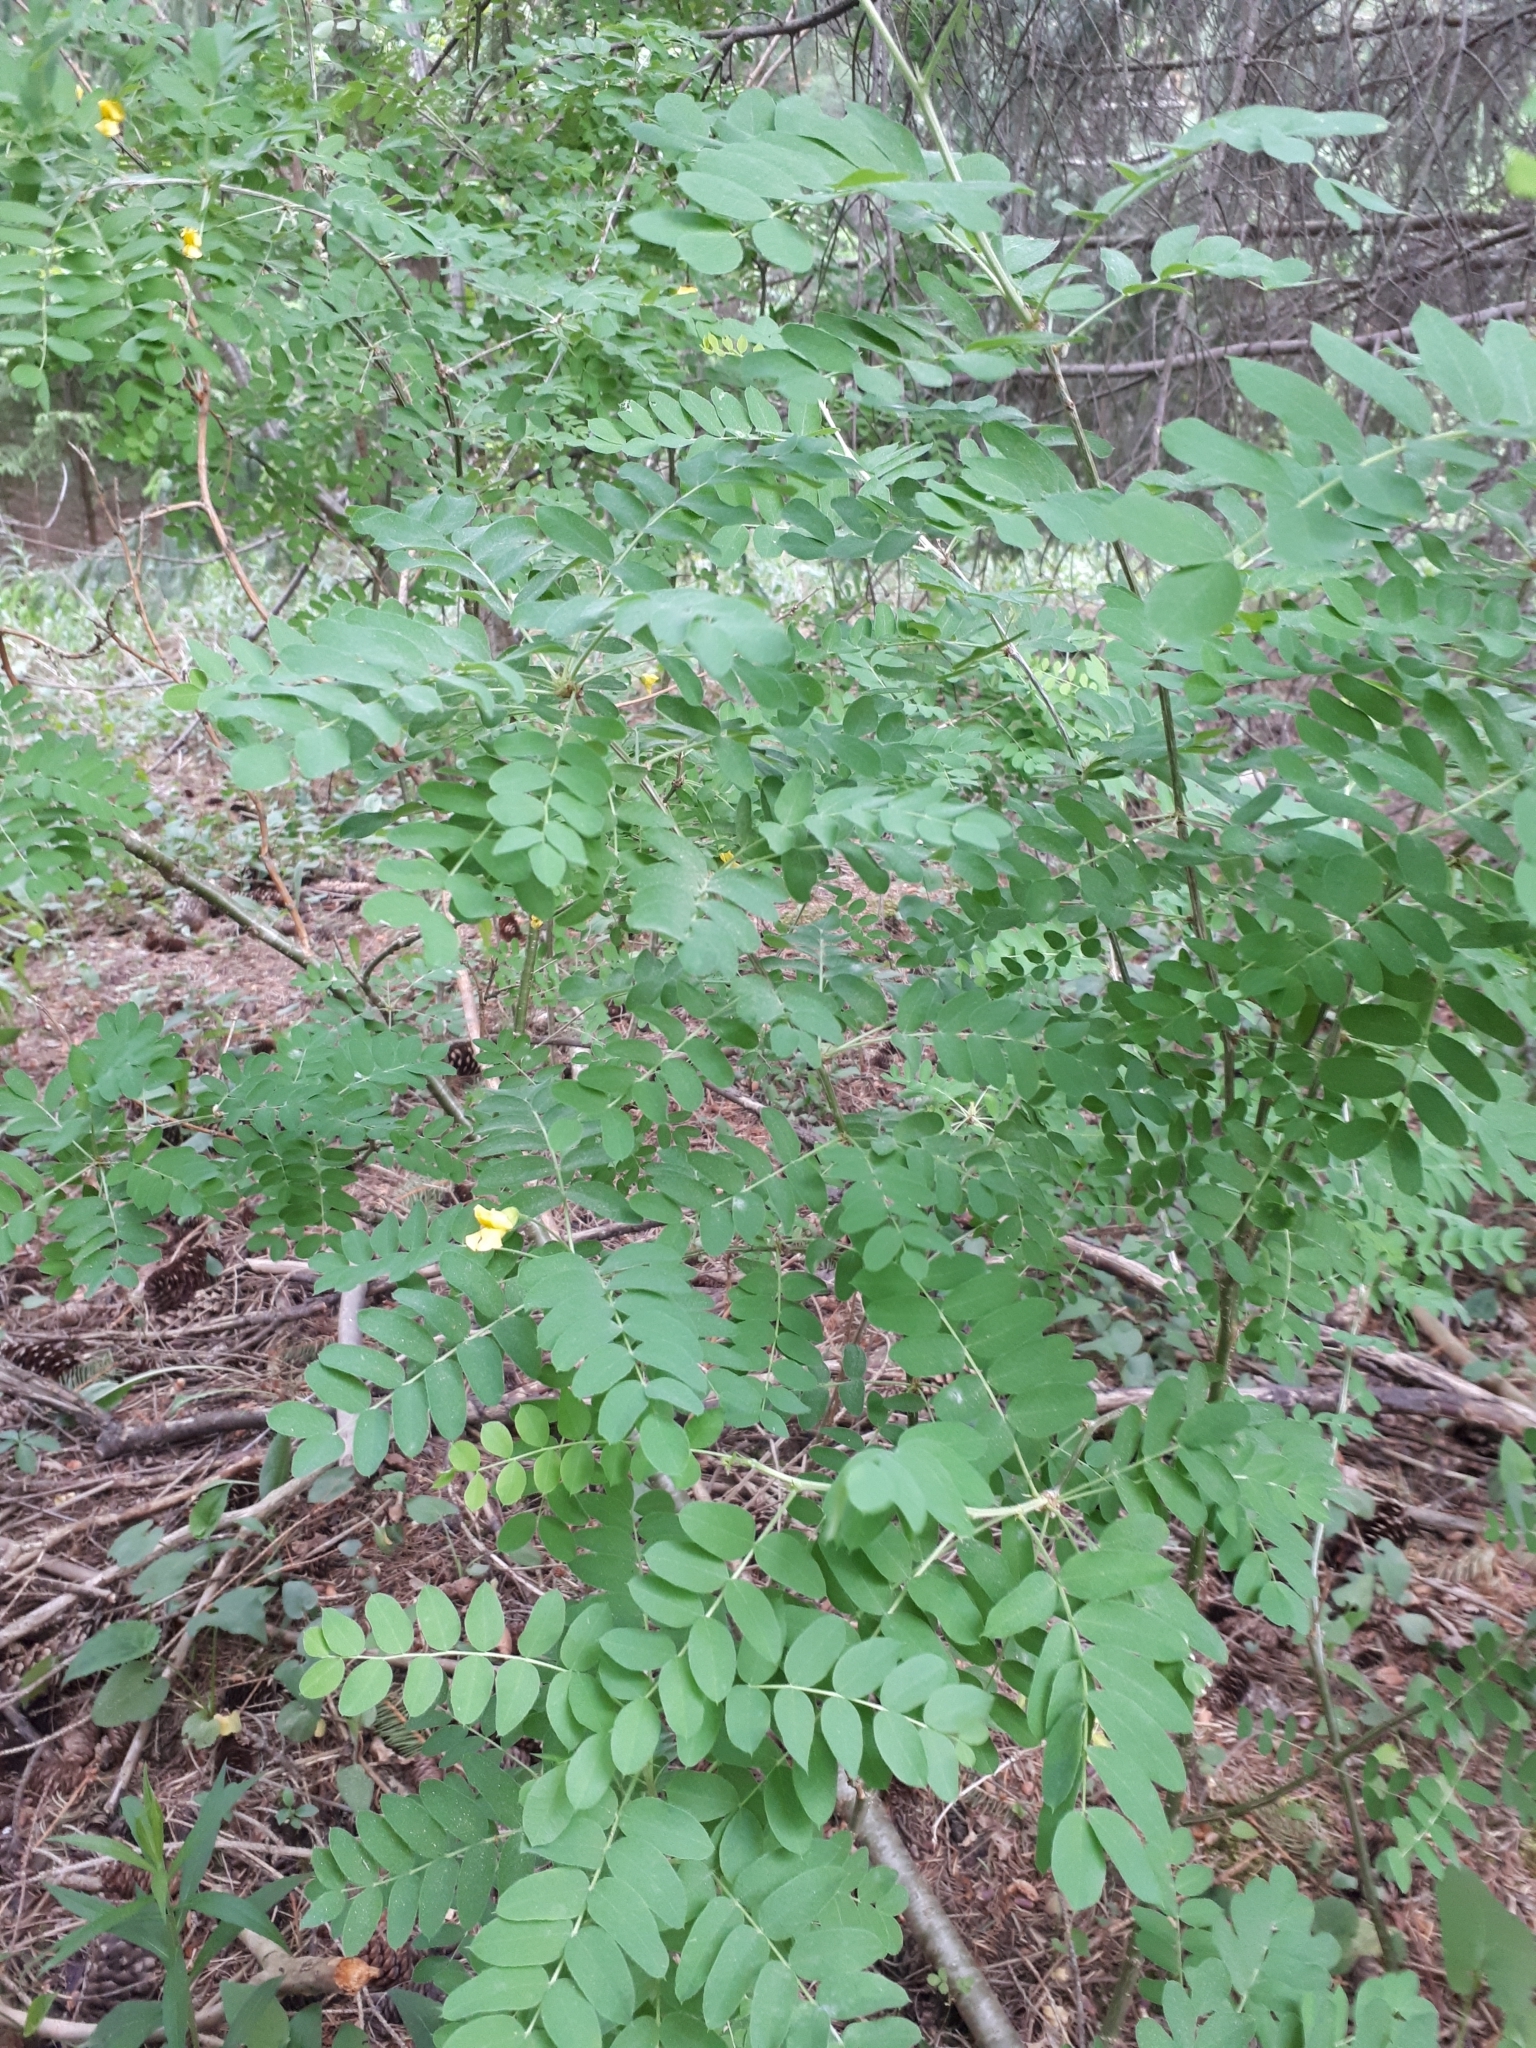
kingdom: Plantae
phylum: Tracheophyta
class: Magnoliopsida
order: Fabales
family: Fabaceae
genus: Caragana
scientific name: Caragana arborescens
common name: Siberian peashrub
